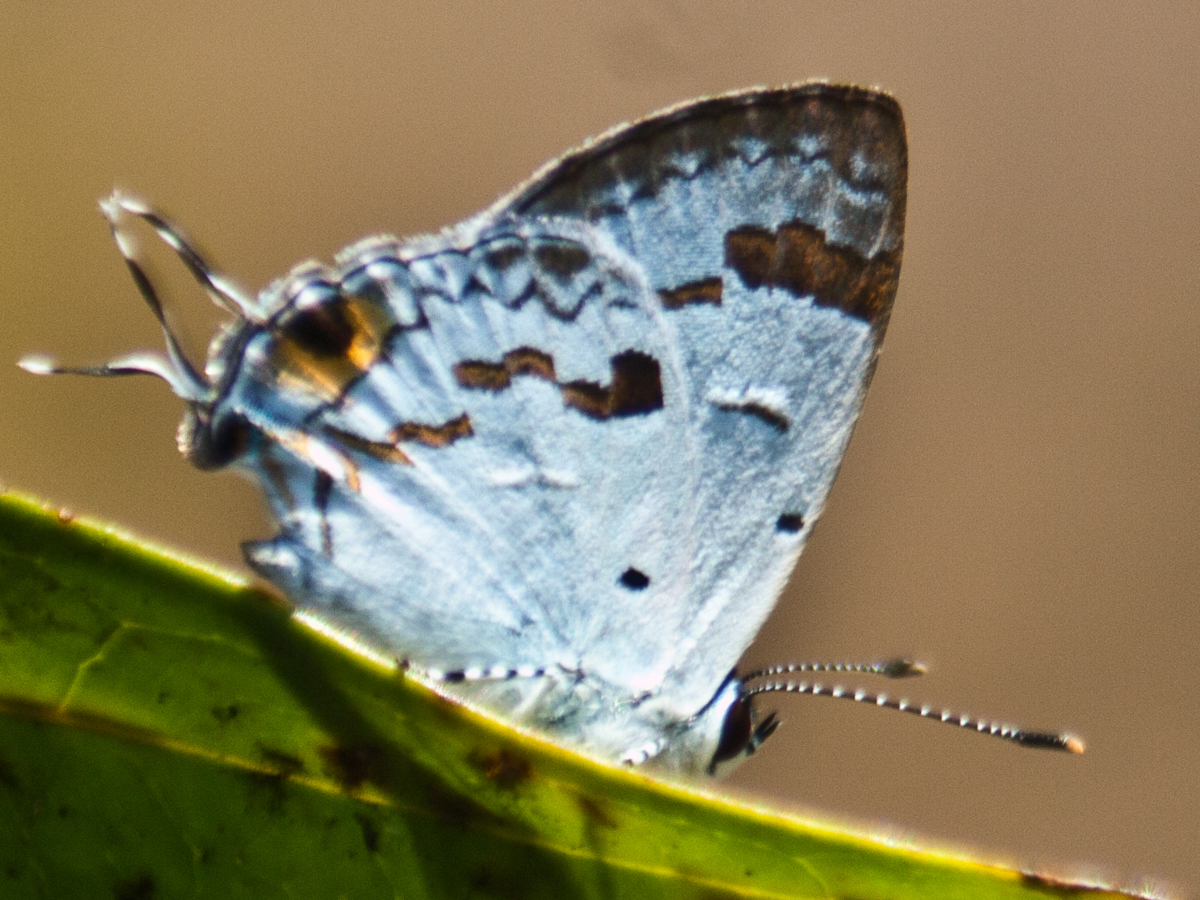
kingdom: Animalia
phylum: Arthropoda
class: Insecta
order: Lepidoptera
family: Lycaenidae
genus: Chliaria
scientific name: Chliaria othona
